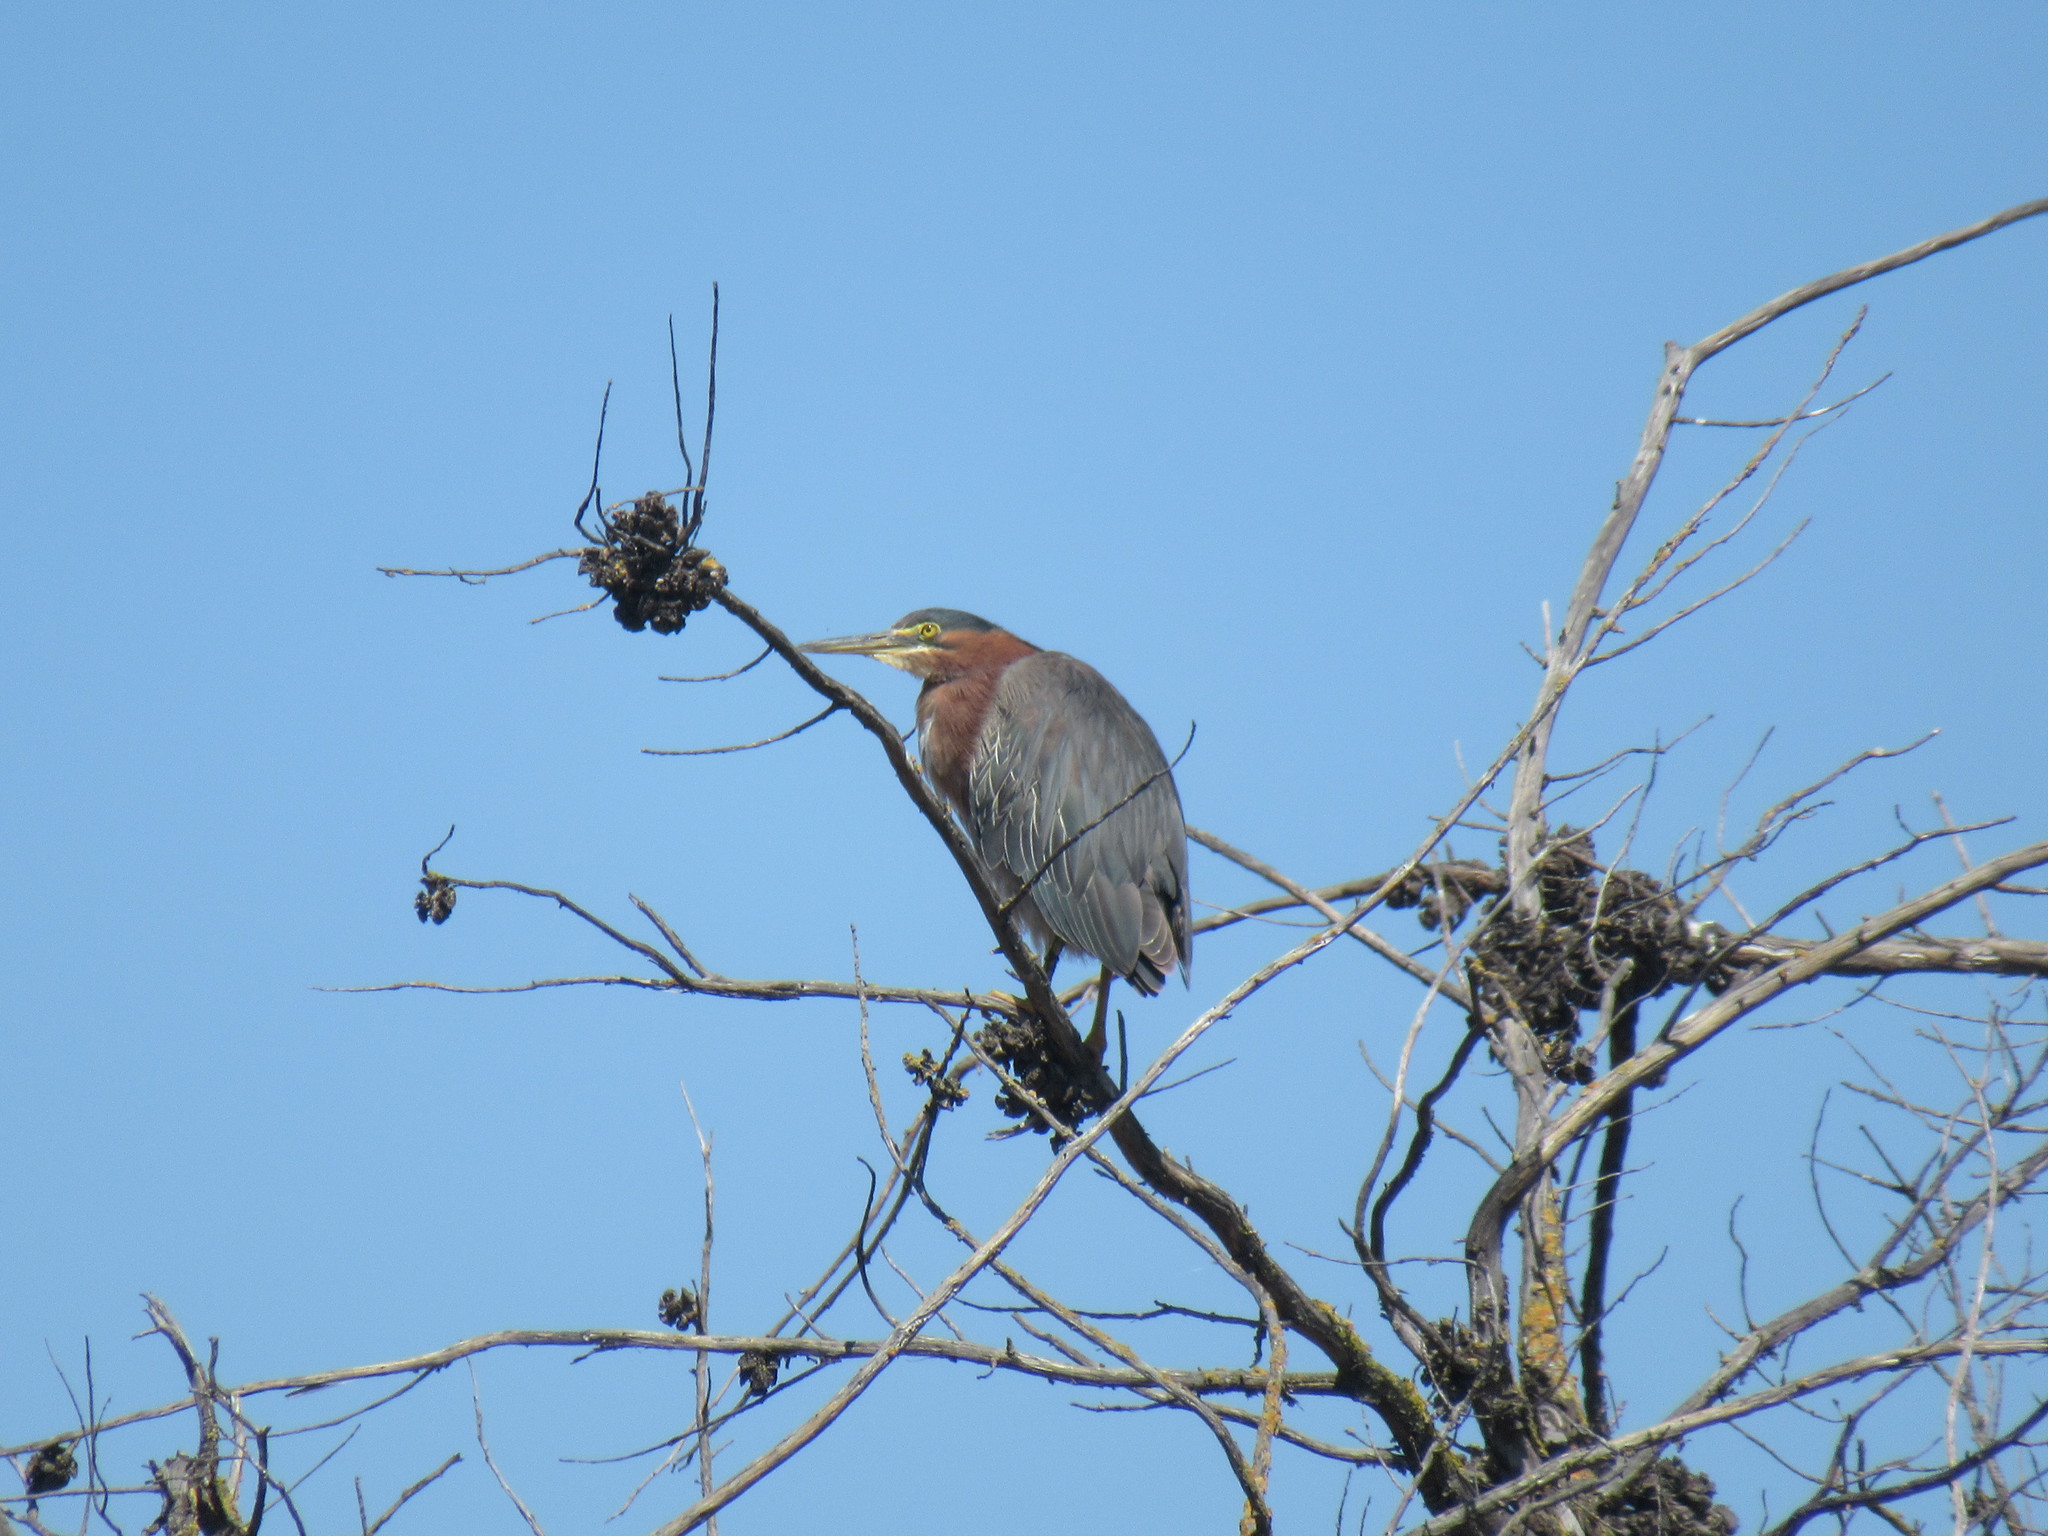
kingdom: Animalia
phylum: Chordata
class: Aves
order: Pelecaniformes
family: Ardeidae
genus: Butorides
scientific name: Butorides virescens
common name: Green heron
